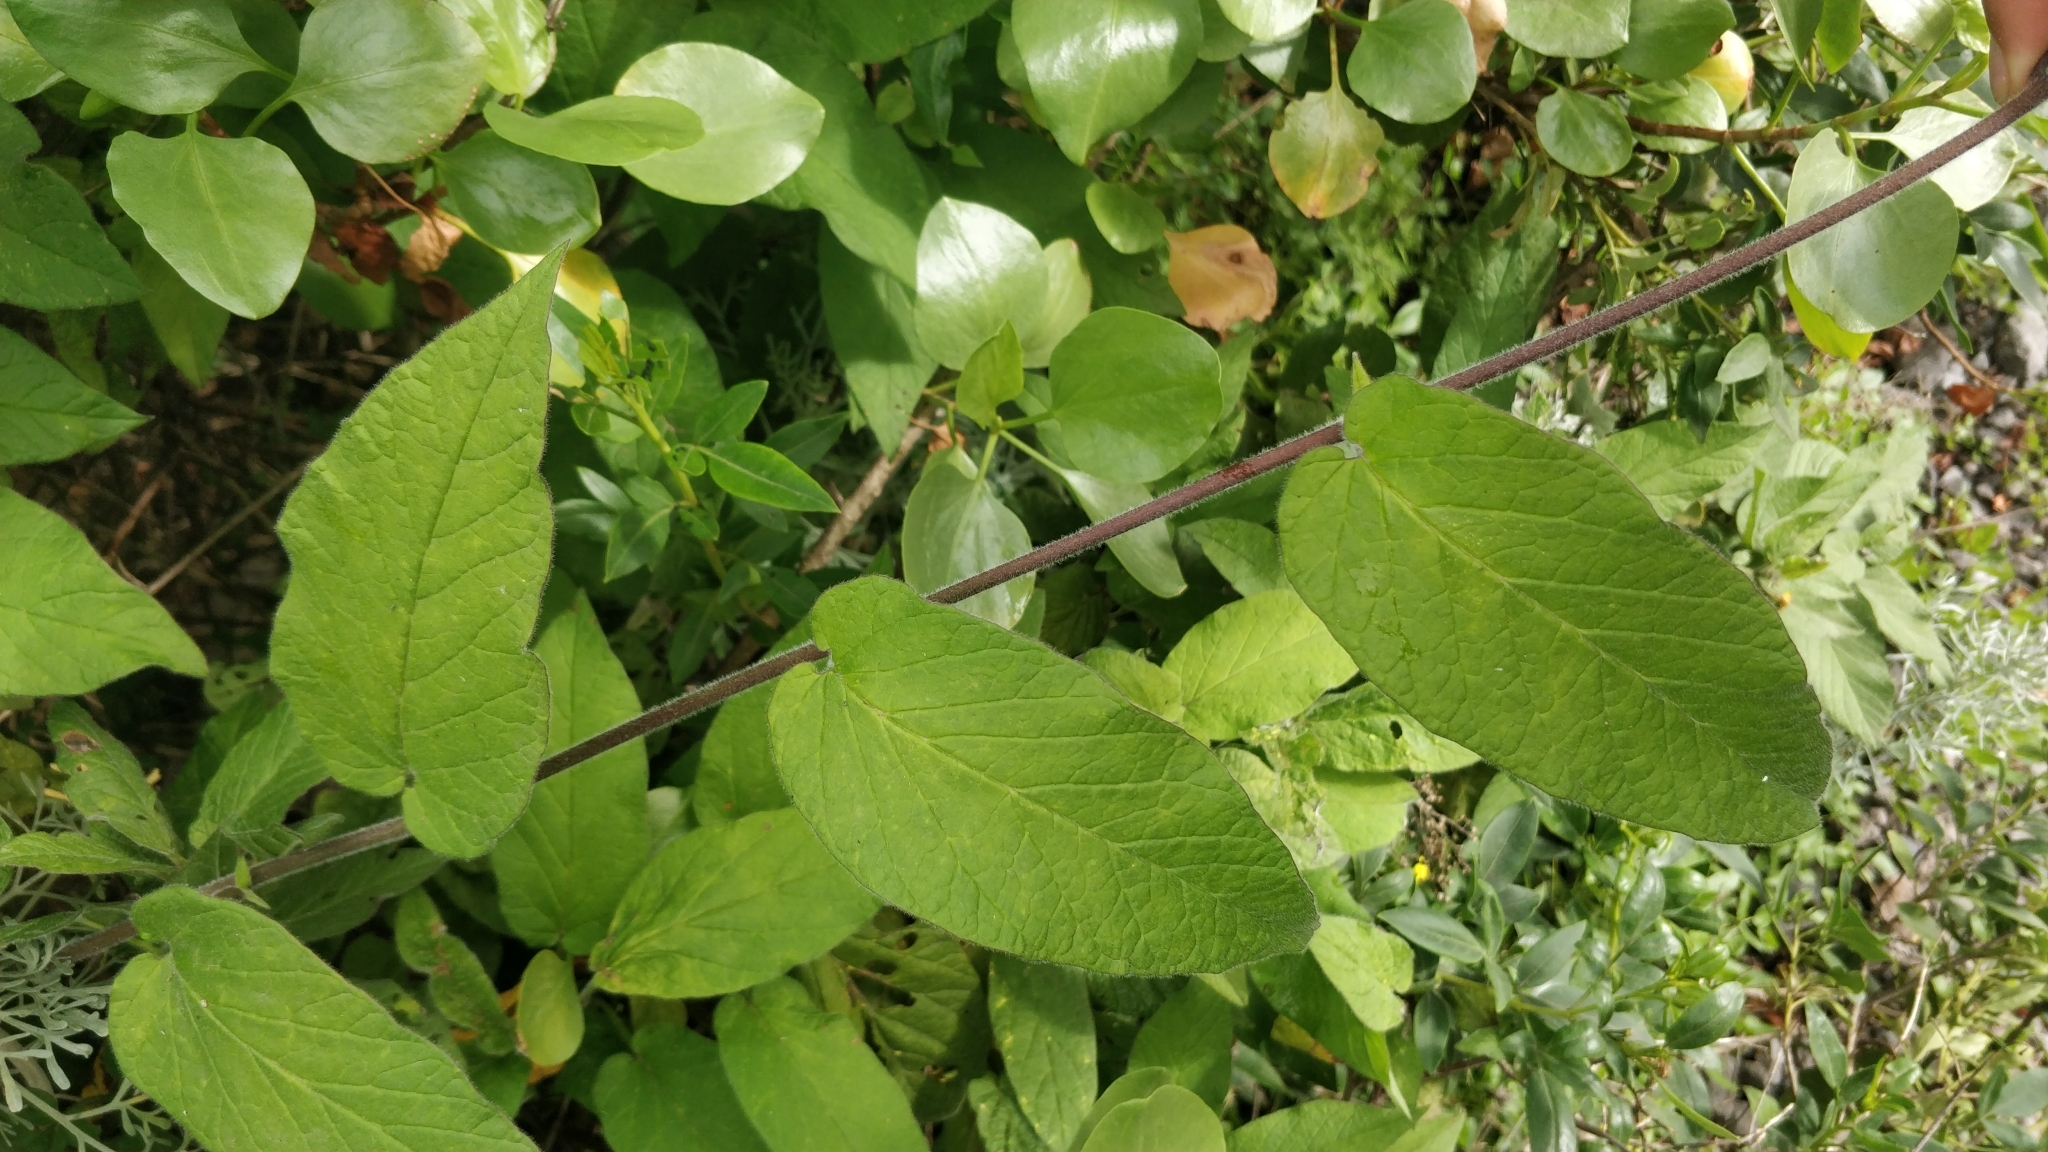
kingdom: Plantae
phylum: Tracheophyta
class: Magnoliopsida
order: Solanales
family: Convolvulaceae
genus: Convolvulus
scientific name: Convolvulus canariensis
